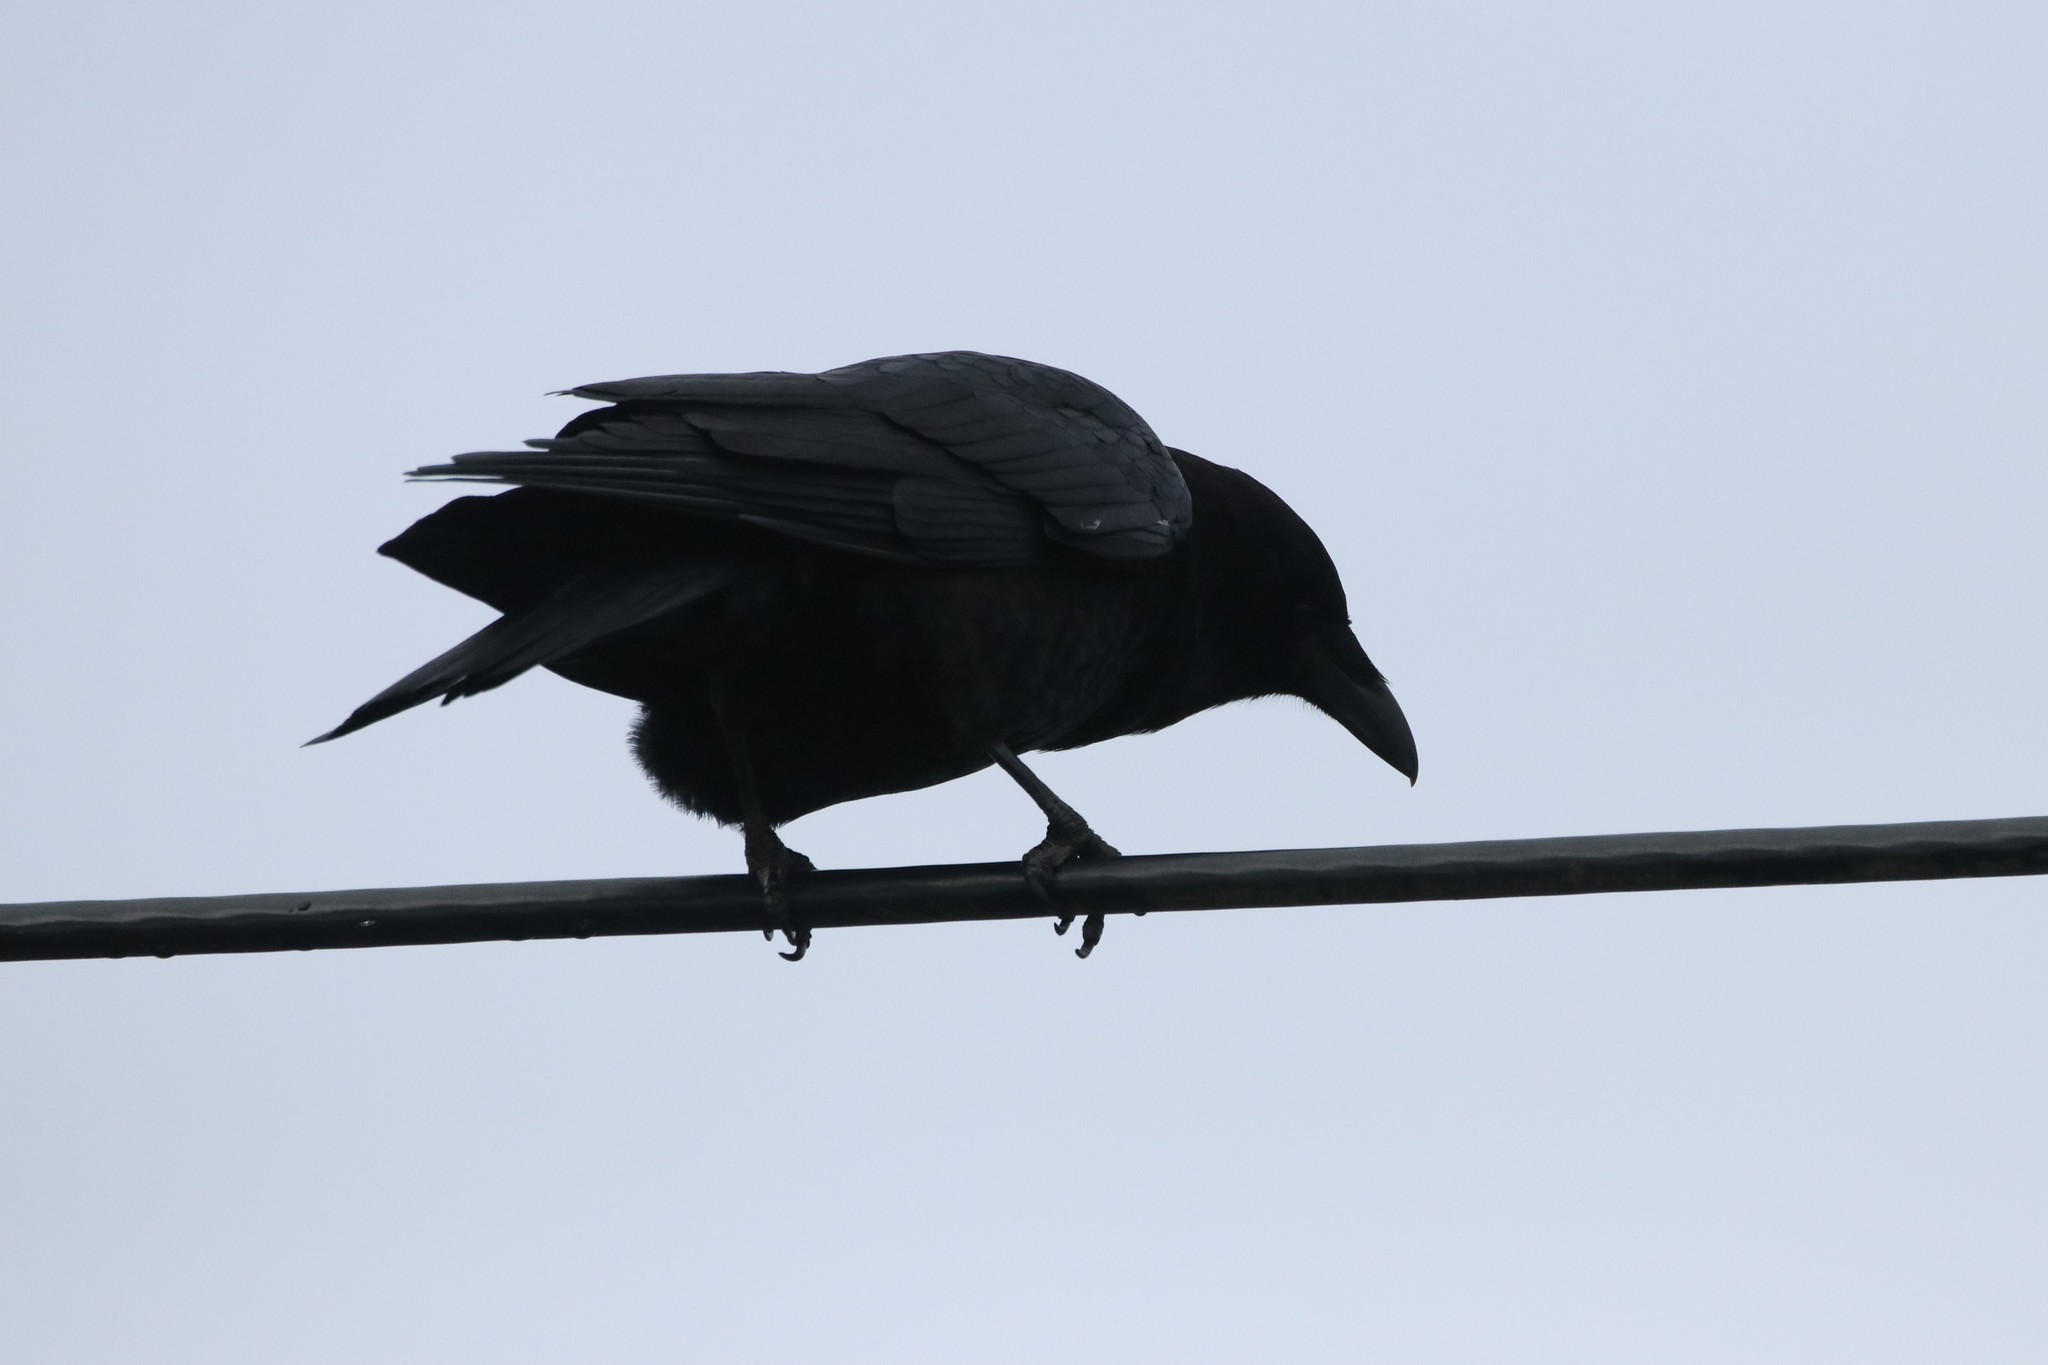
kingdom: Animalia
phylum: Chordata
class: Aves
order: Passeriformes
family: Corvidae
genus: Corvus
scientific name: Corvus brachyrhynchos
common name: American crow
